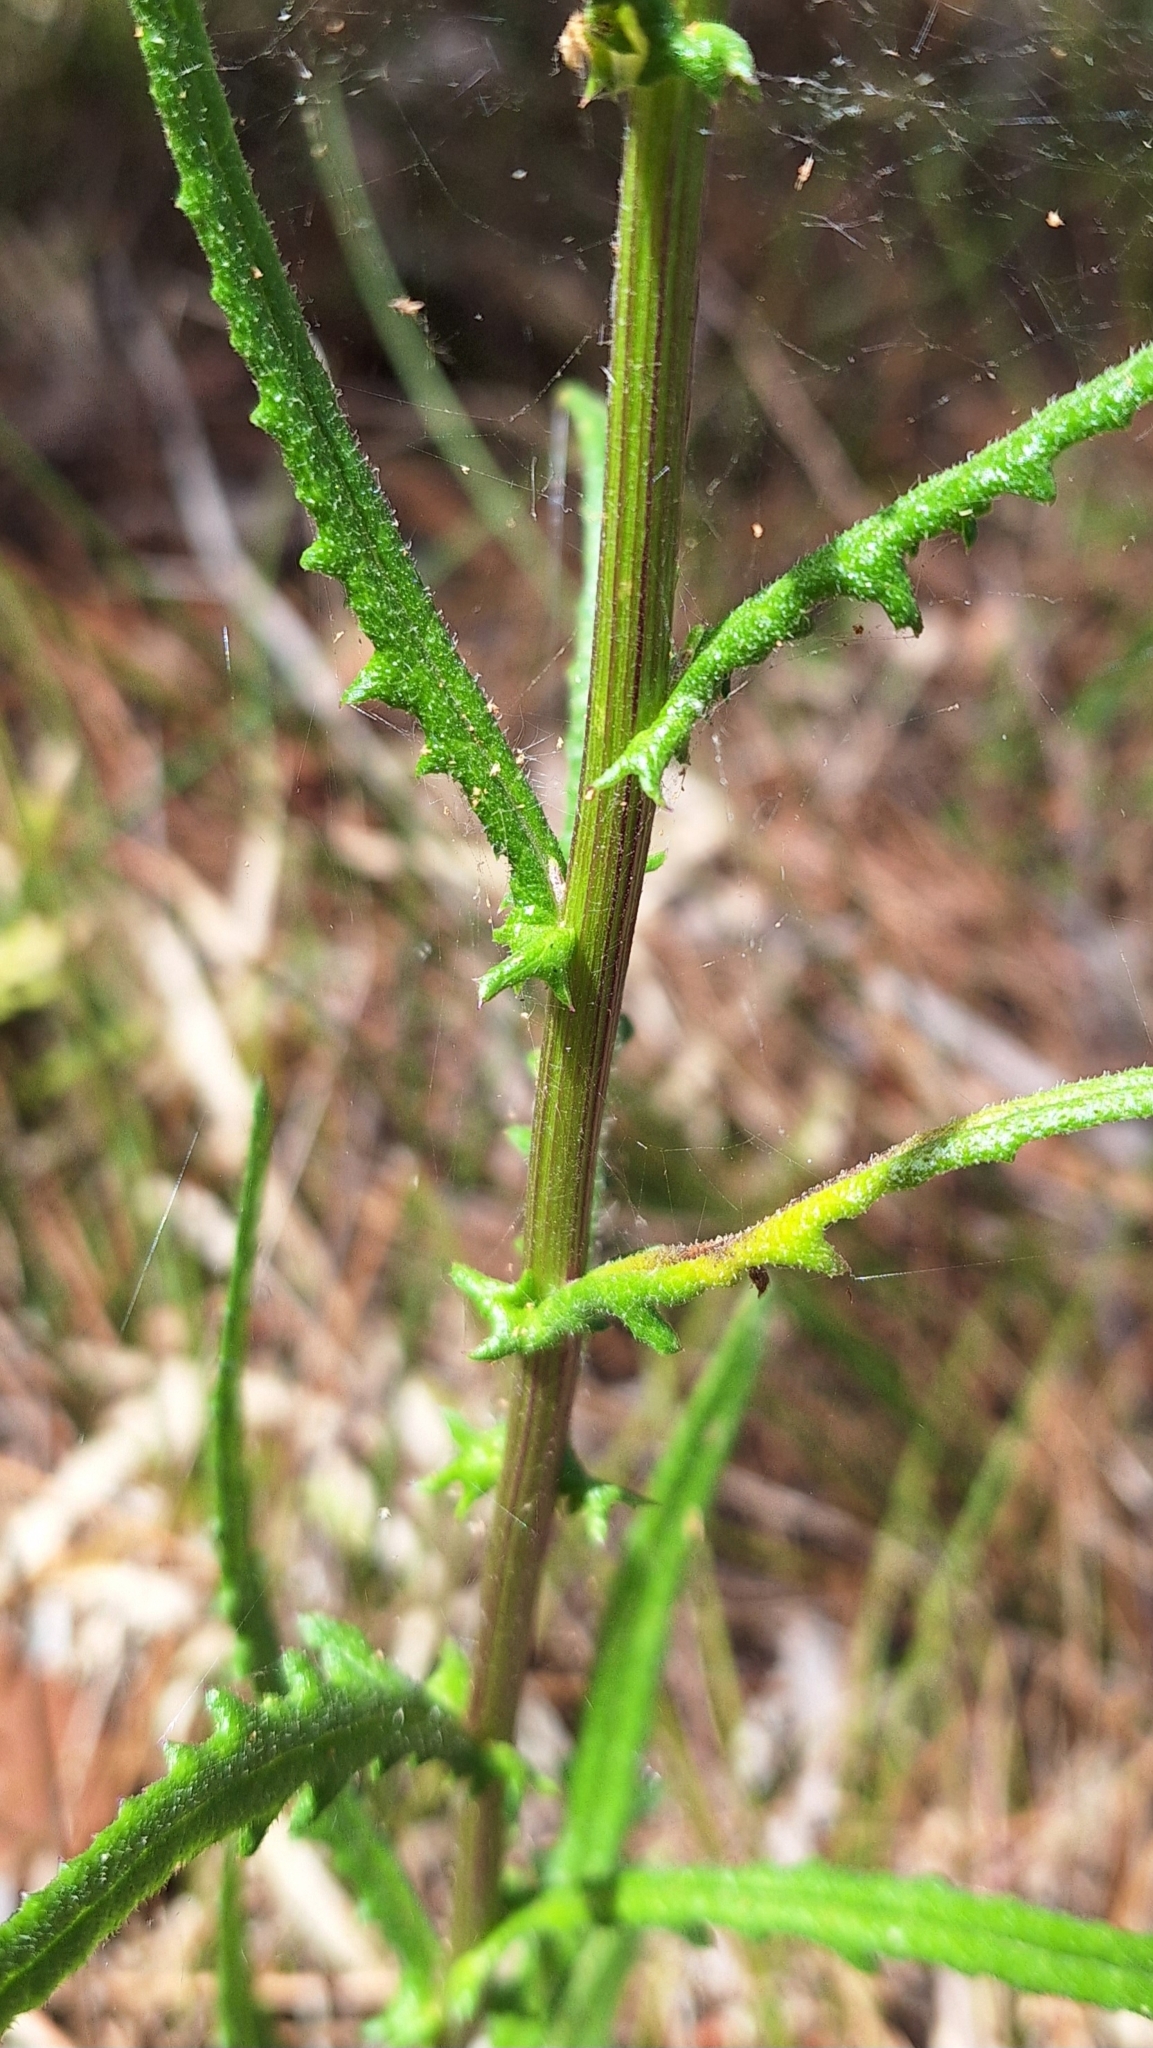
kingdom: Plantae
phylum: Tracheophyta
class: Magnoliopsida
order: Asterales
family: Asteraceae
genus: Senecio
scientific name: Senecio hispidulus
